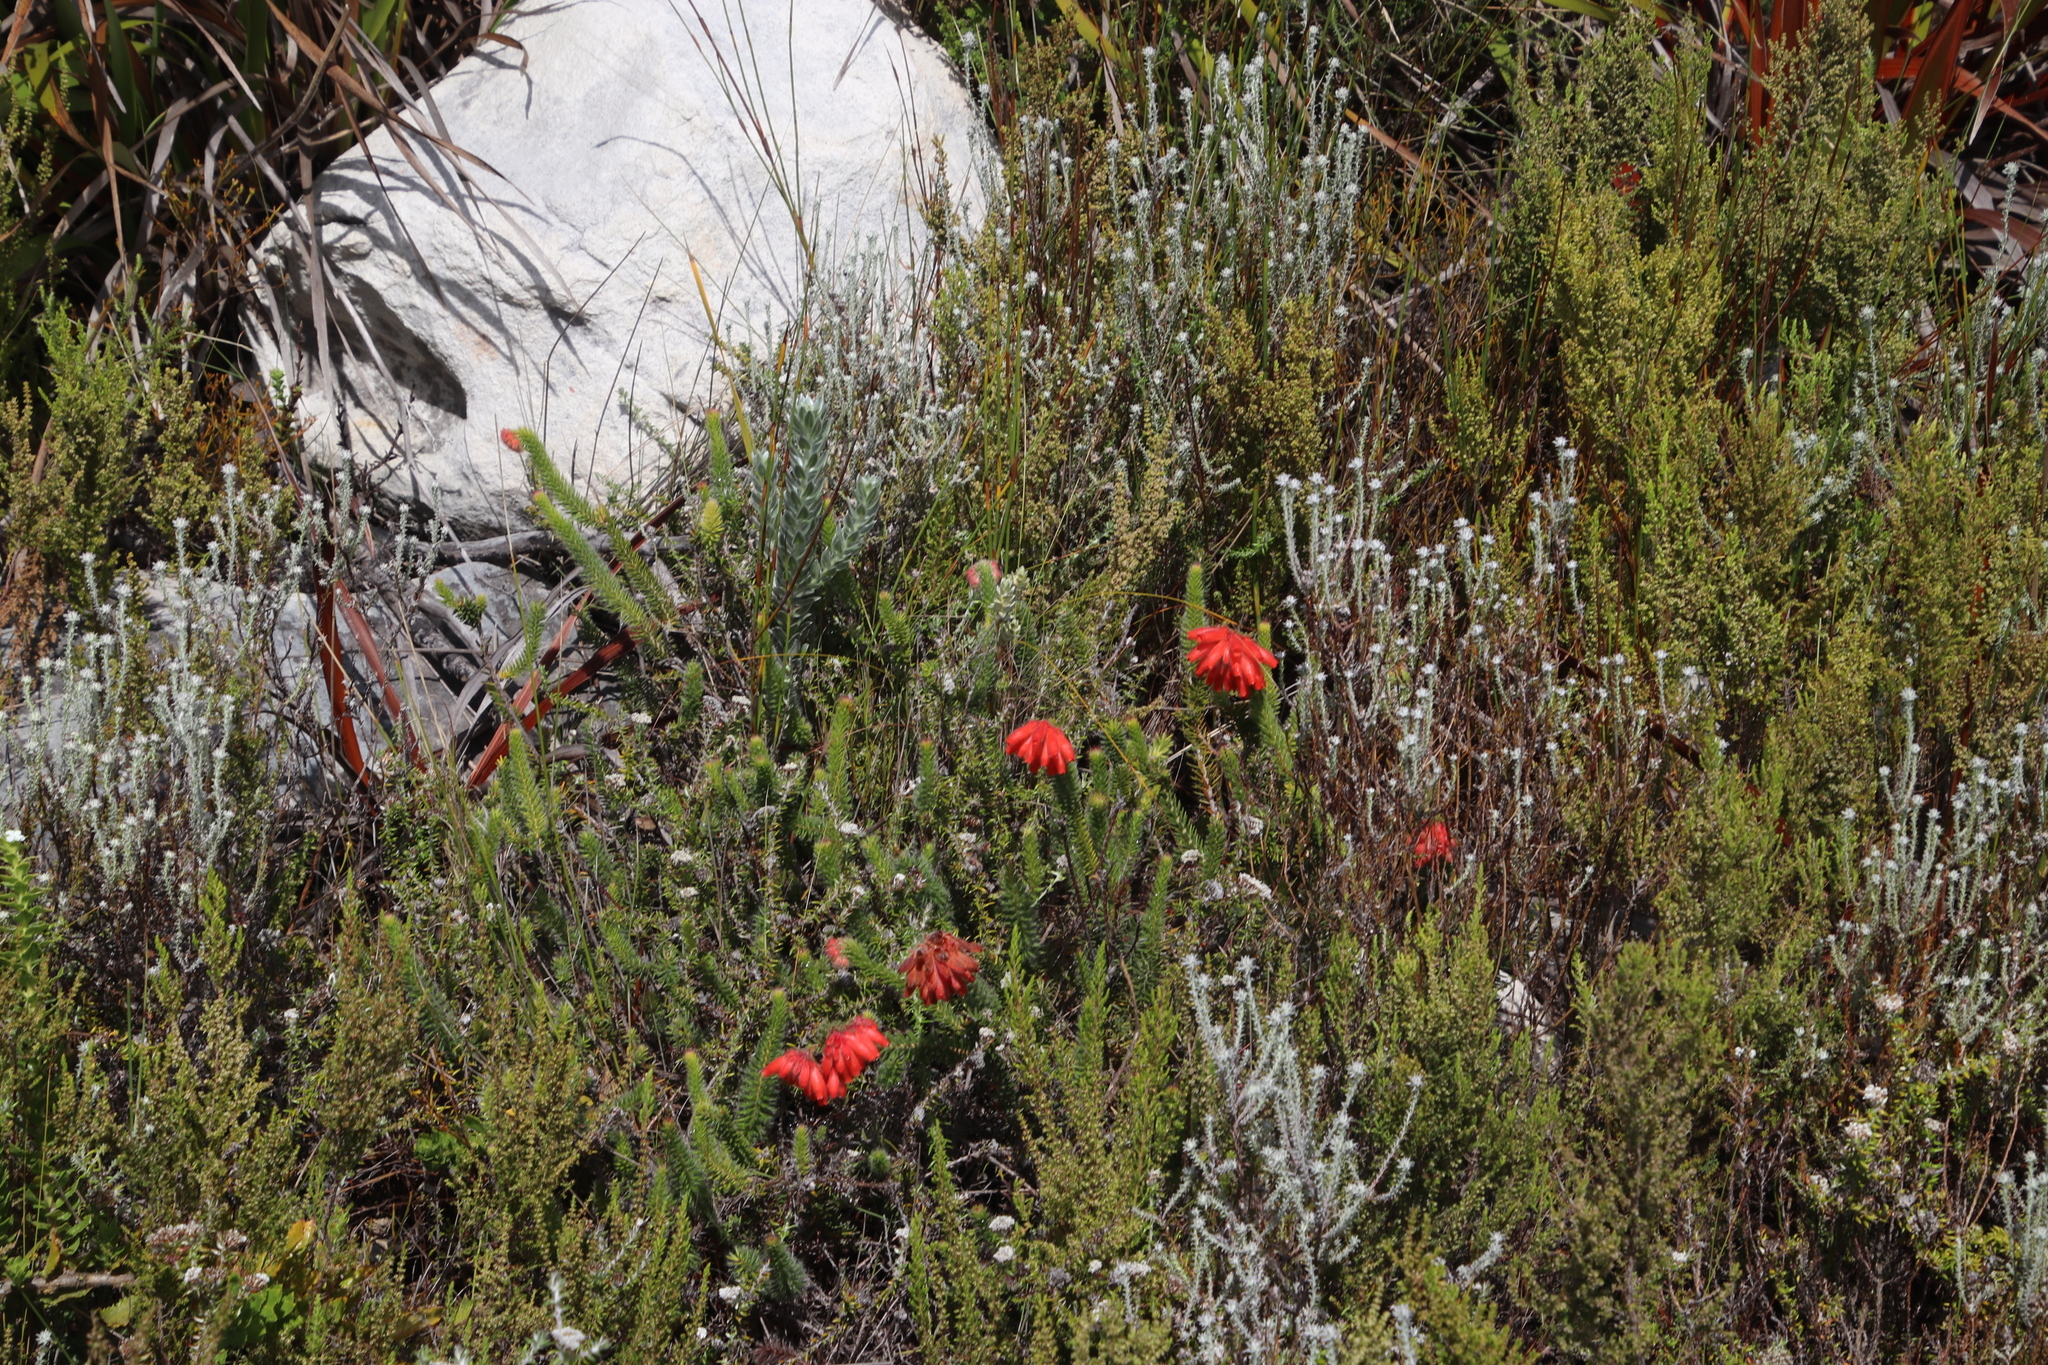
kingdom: Plantae
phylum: Tracheophyta
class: Magnoliopsida
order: Ericales
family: Ericaceae
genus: Erica
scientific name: Erica cerinthoides
